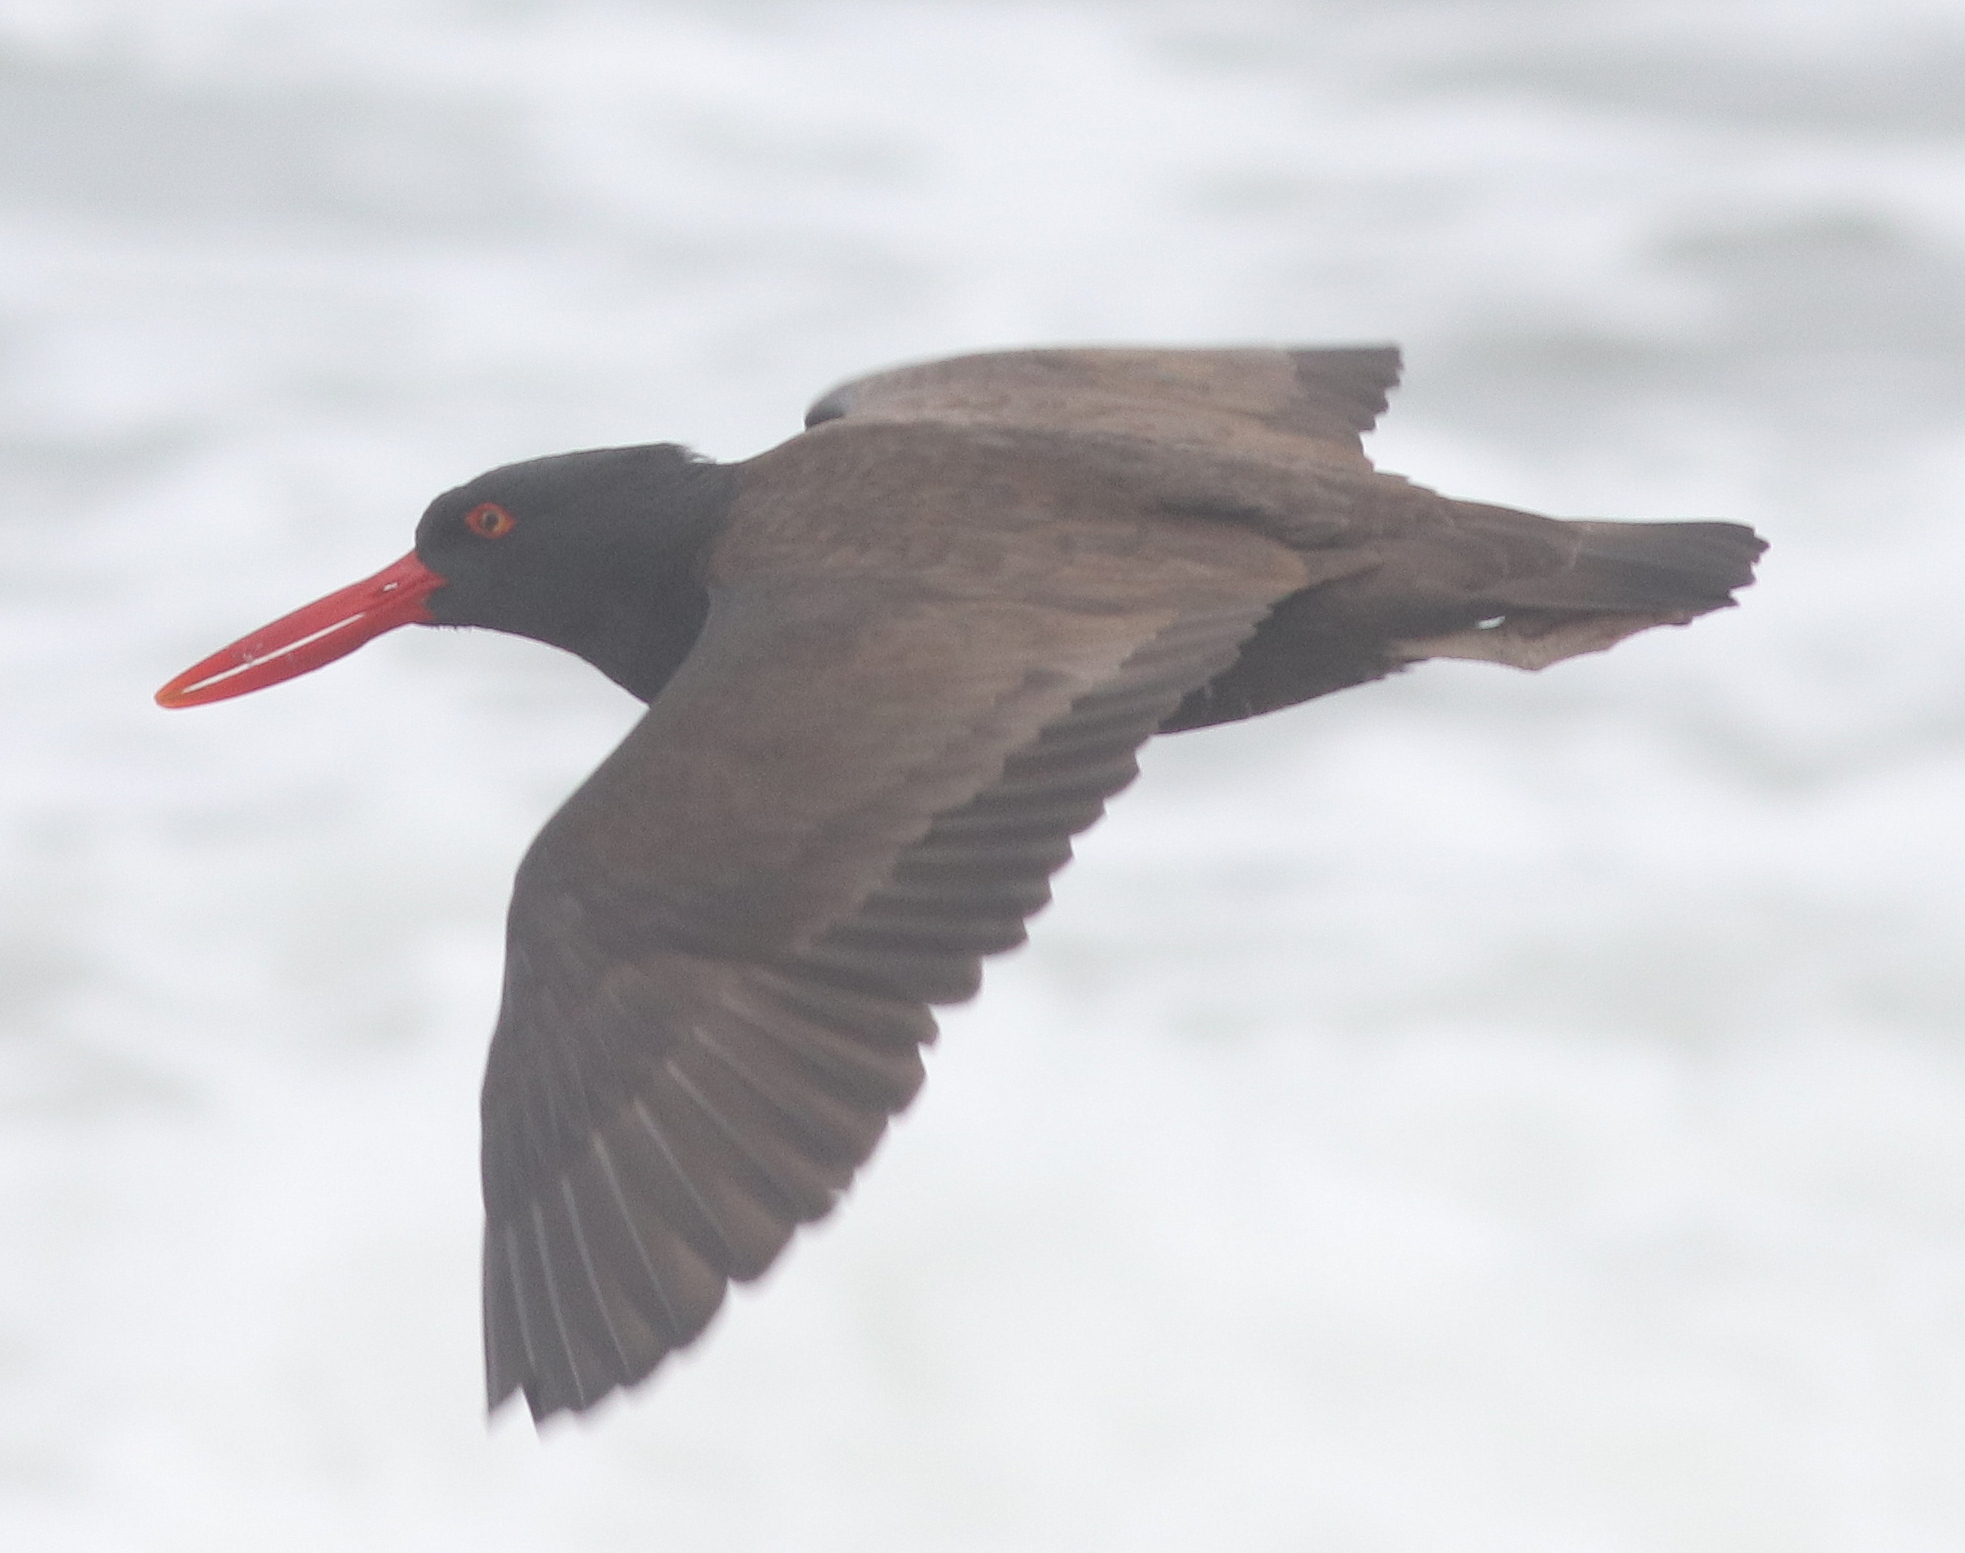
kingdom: Animalia
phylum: Chordata
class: Aves
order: Charadriiformes
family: Haematopodidae
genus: Haematopus
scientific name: Haematopus ater
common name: Blackish oystercatcher
